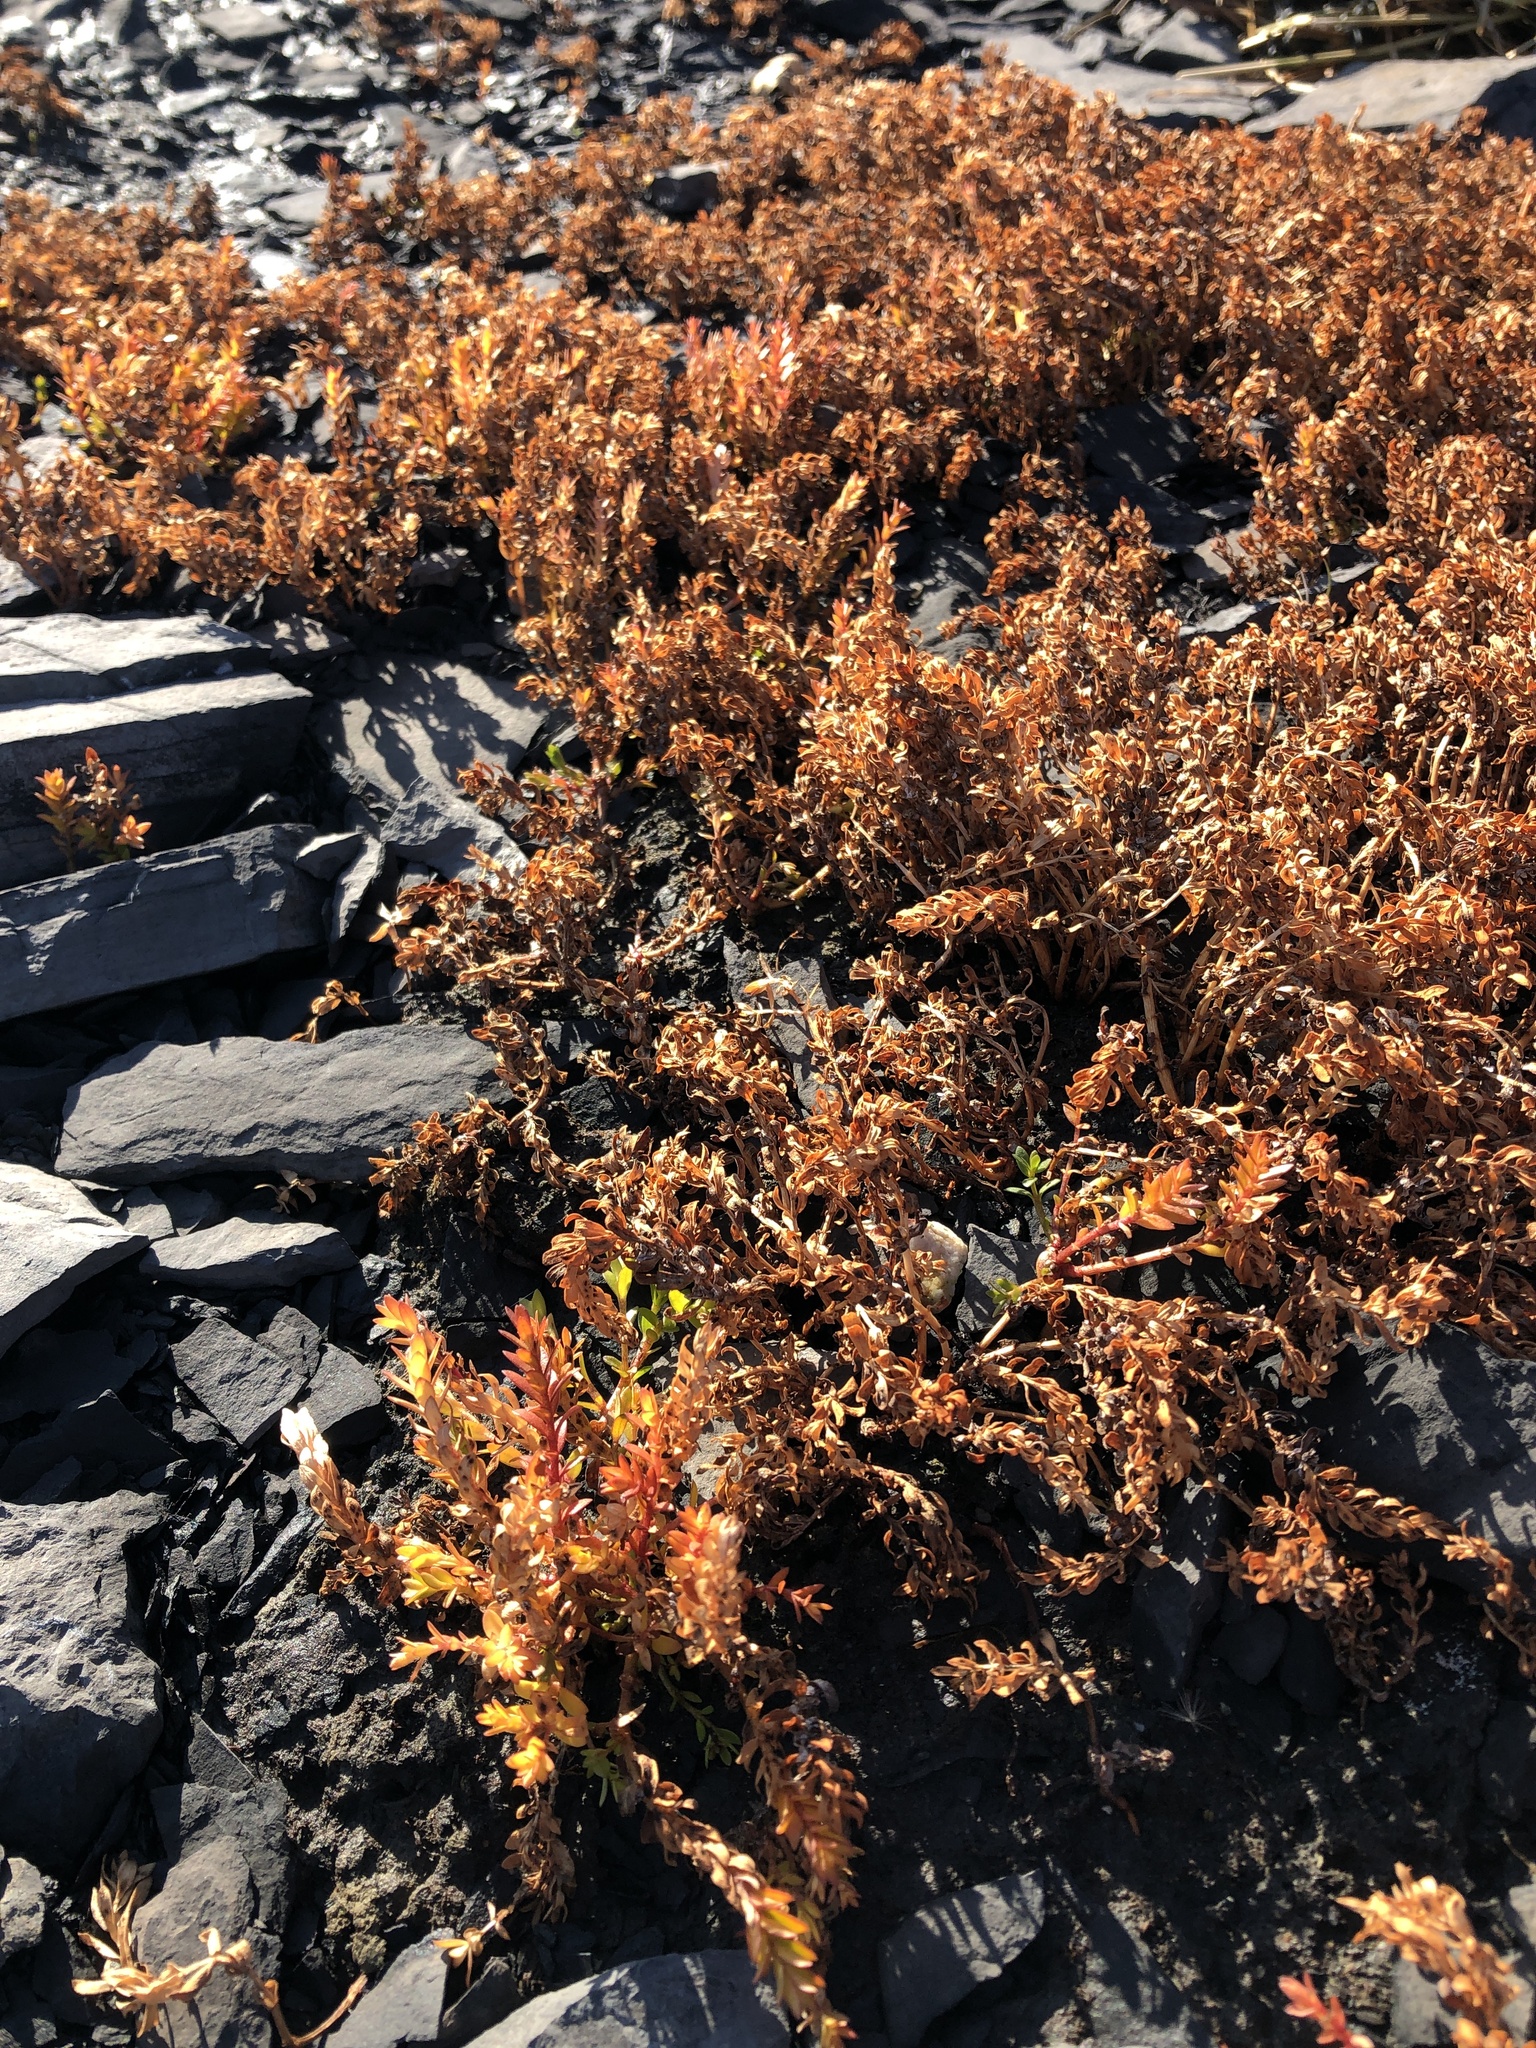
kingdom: Plantae
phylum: Tracheophyta
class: Magnoliopsida
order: Ericales
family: Primulaceae
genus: Lysimachia
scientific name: Lysimachia maritima
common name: Sea milkwort
